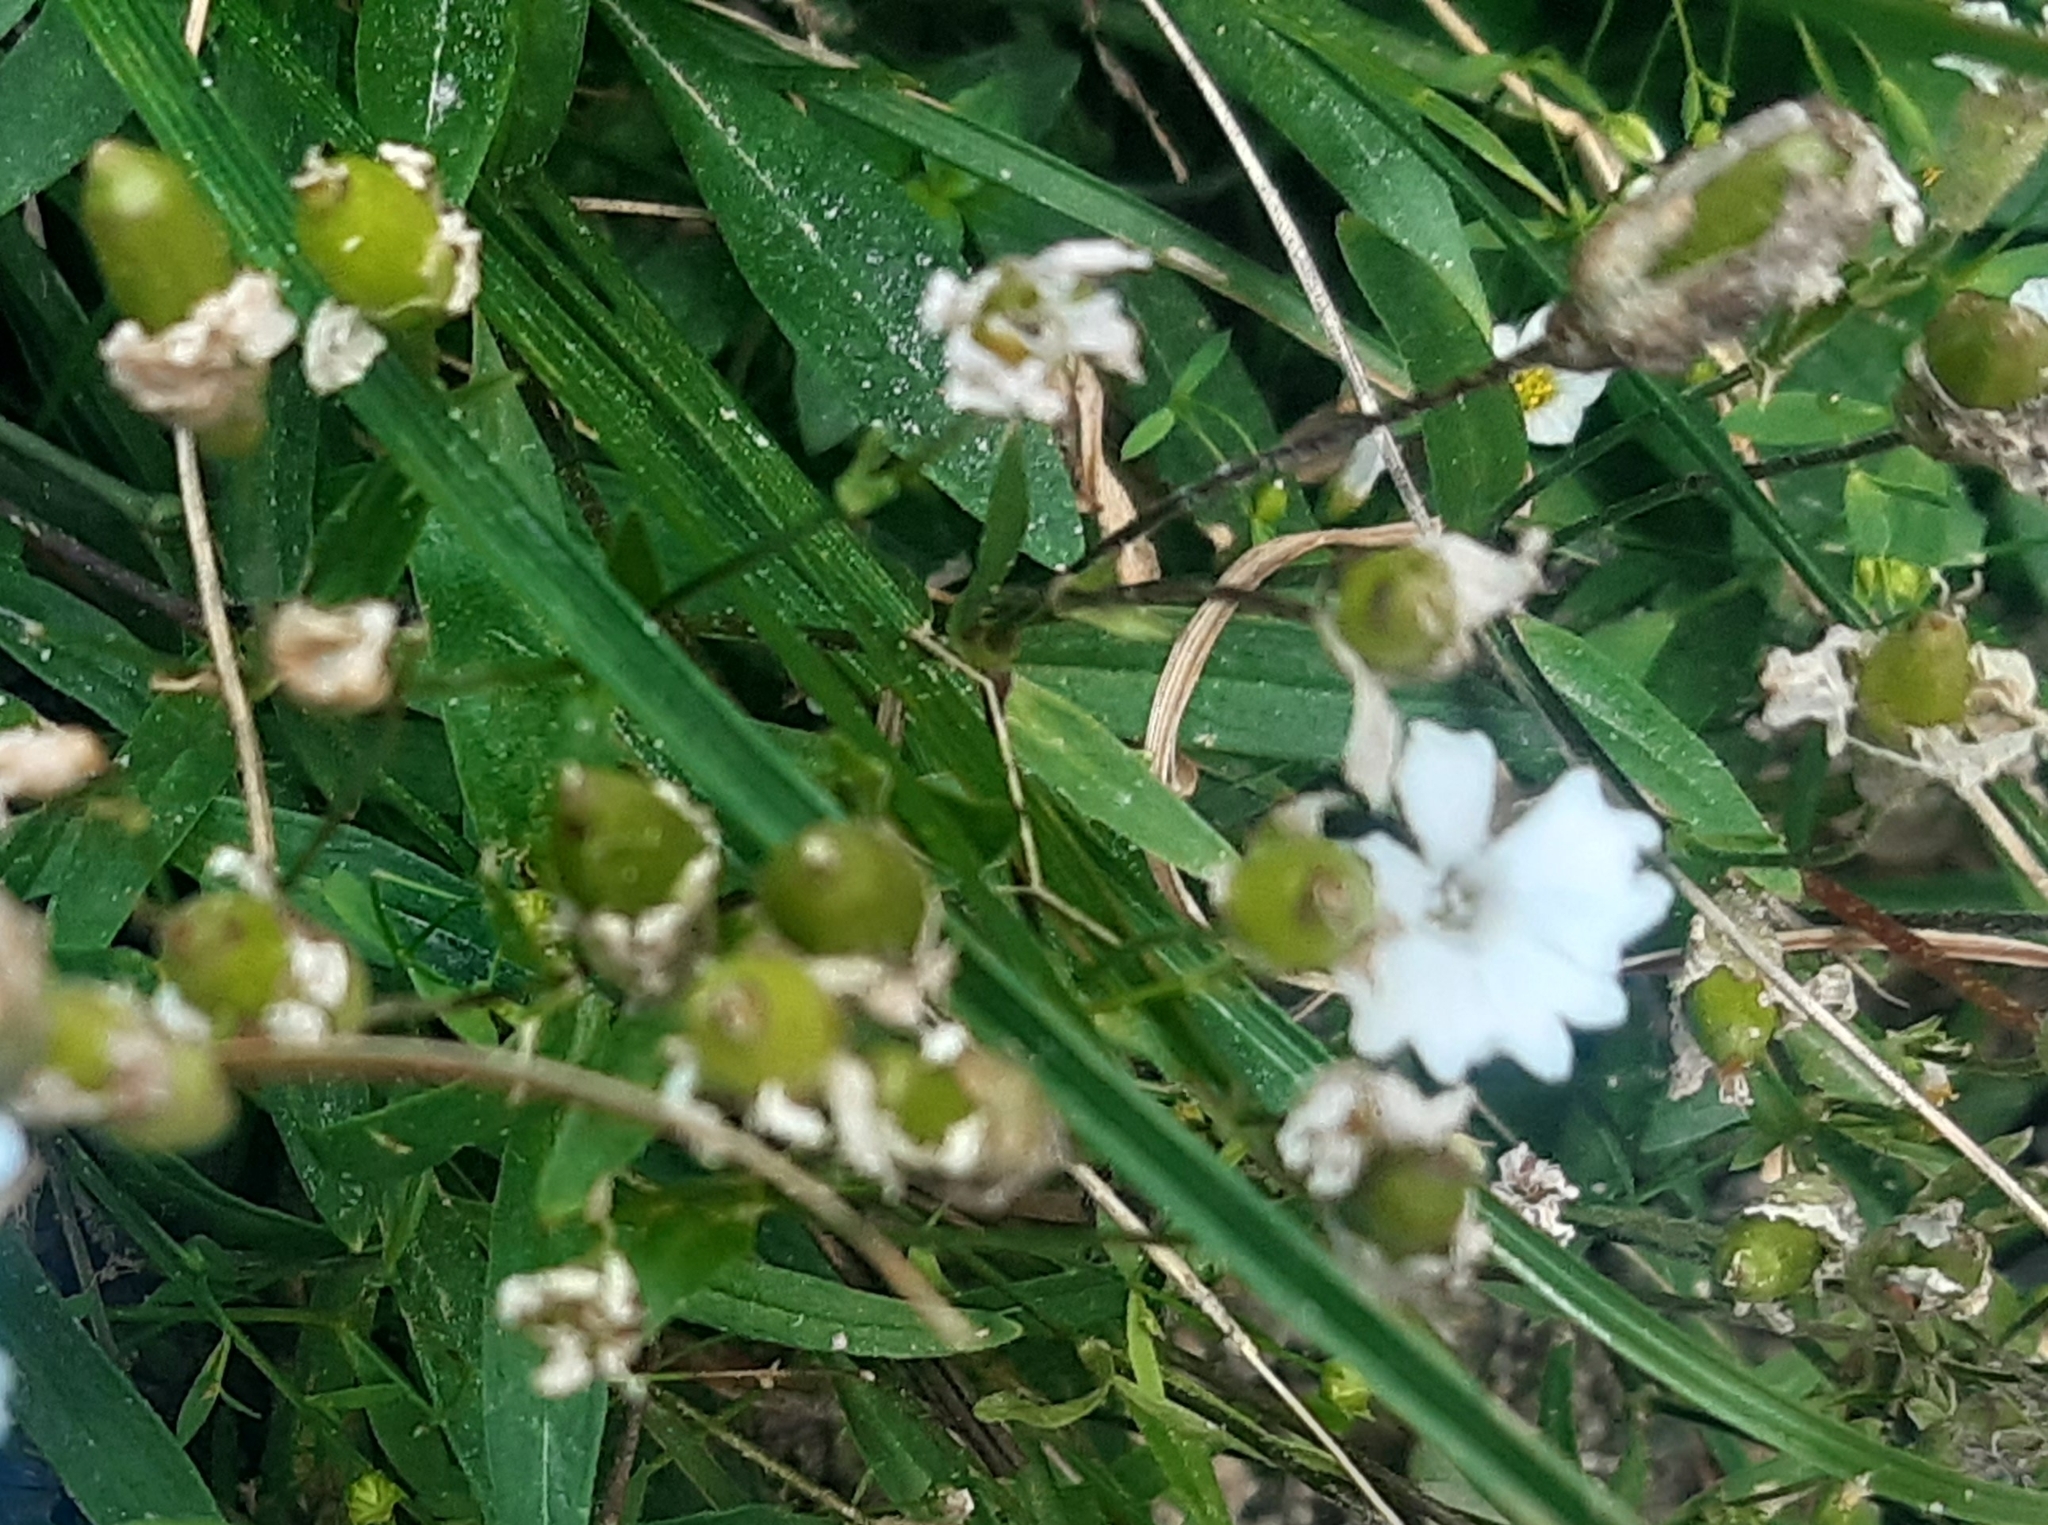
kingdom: Plantae
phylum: Tracheophyta
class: Magnoliopsida
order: Caryophyllales
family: Caryophyllaceae
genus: Heliosperma
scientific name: Heliosperma alpestre
